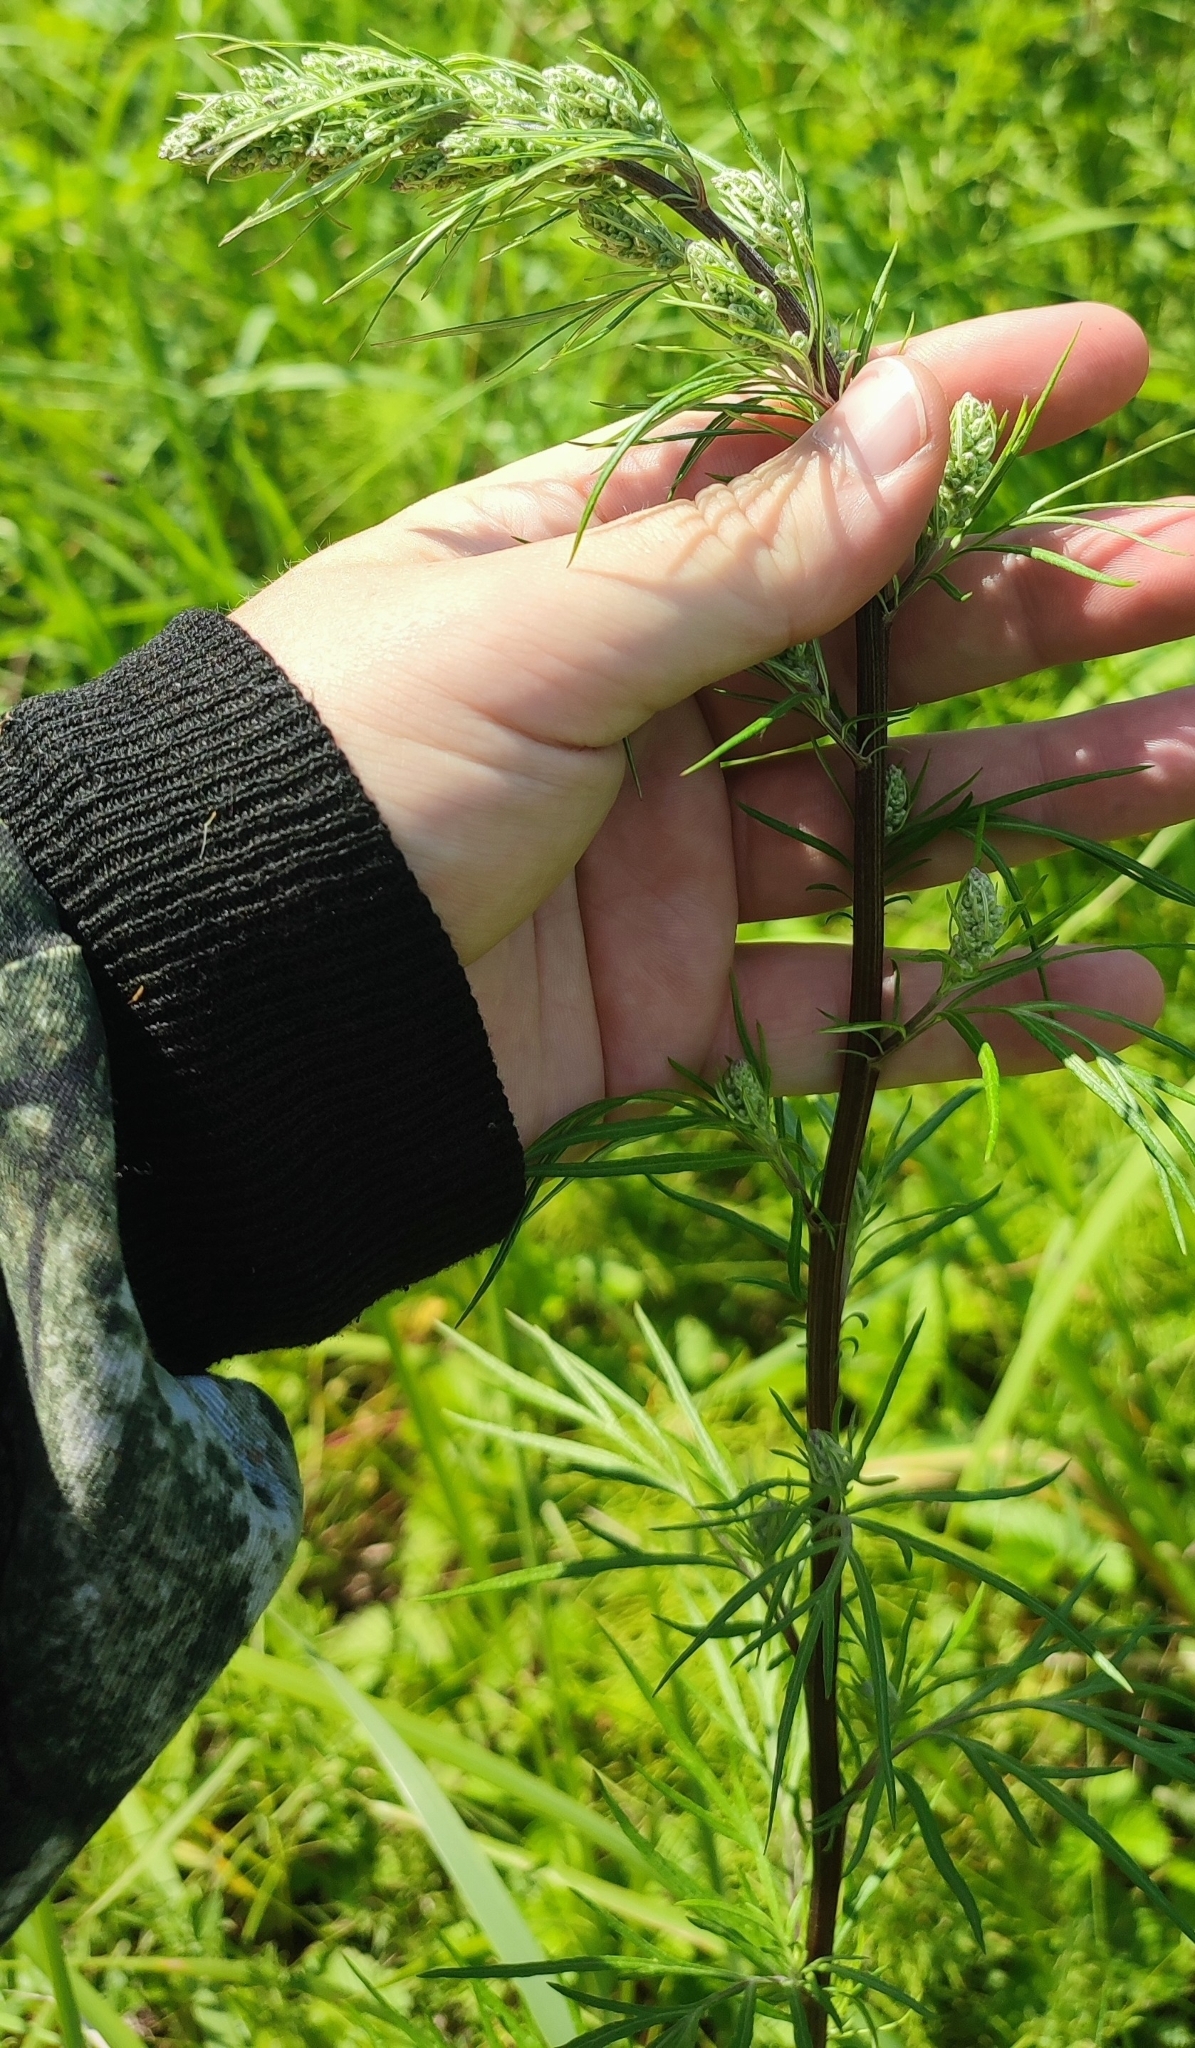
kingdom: Plantae
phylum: Tracheophyta
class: Magnoliopsida
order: Asterales
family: Asteraceae
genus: Artemisia
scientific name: Artemisia vulgaris
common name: Mugwort
